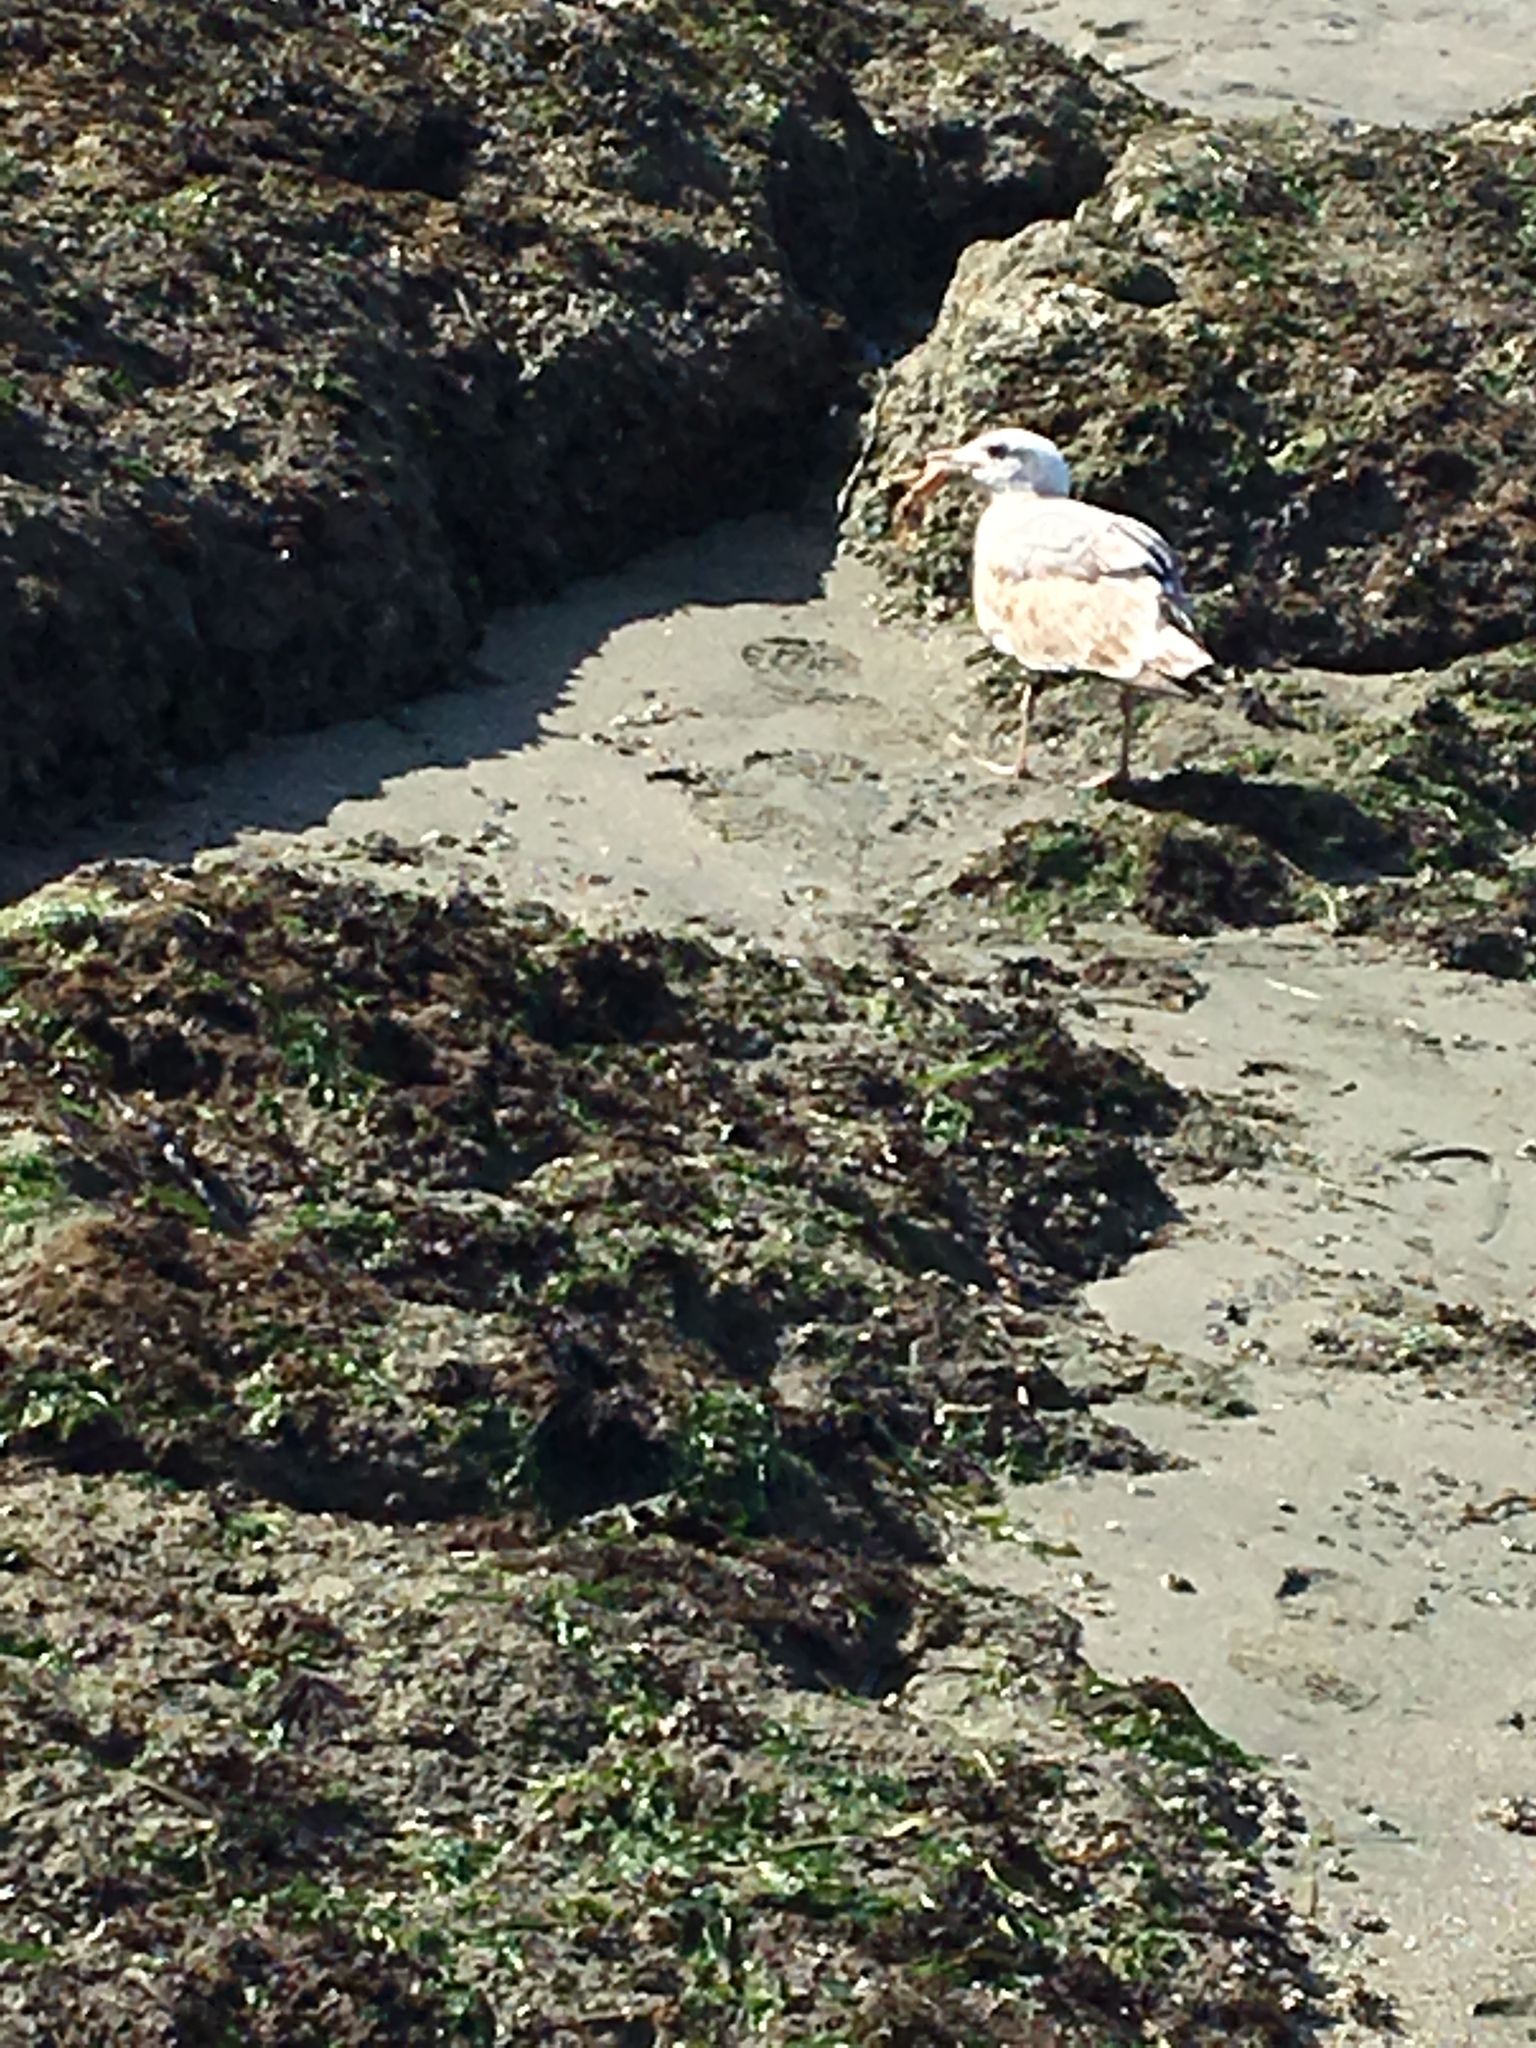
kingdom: Animalia
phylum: Chordata
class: Aves
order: Charadriiformes
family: Laridae
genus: Larus
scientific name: Larus occidentalis
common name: Western gull
